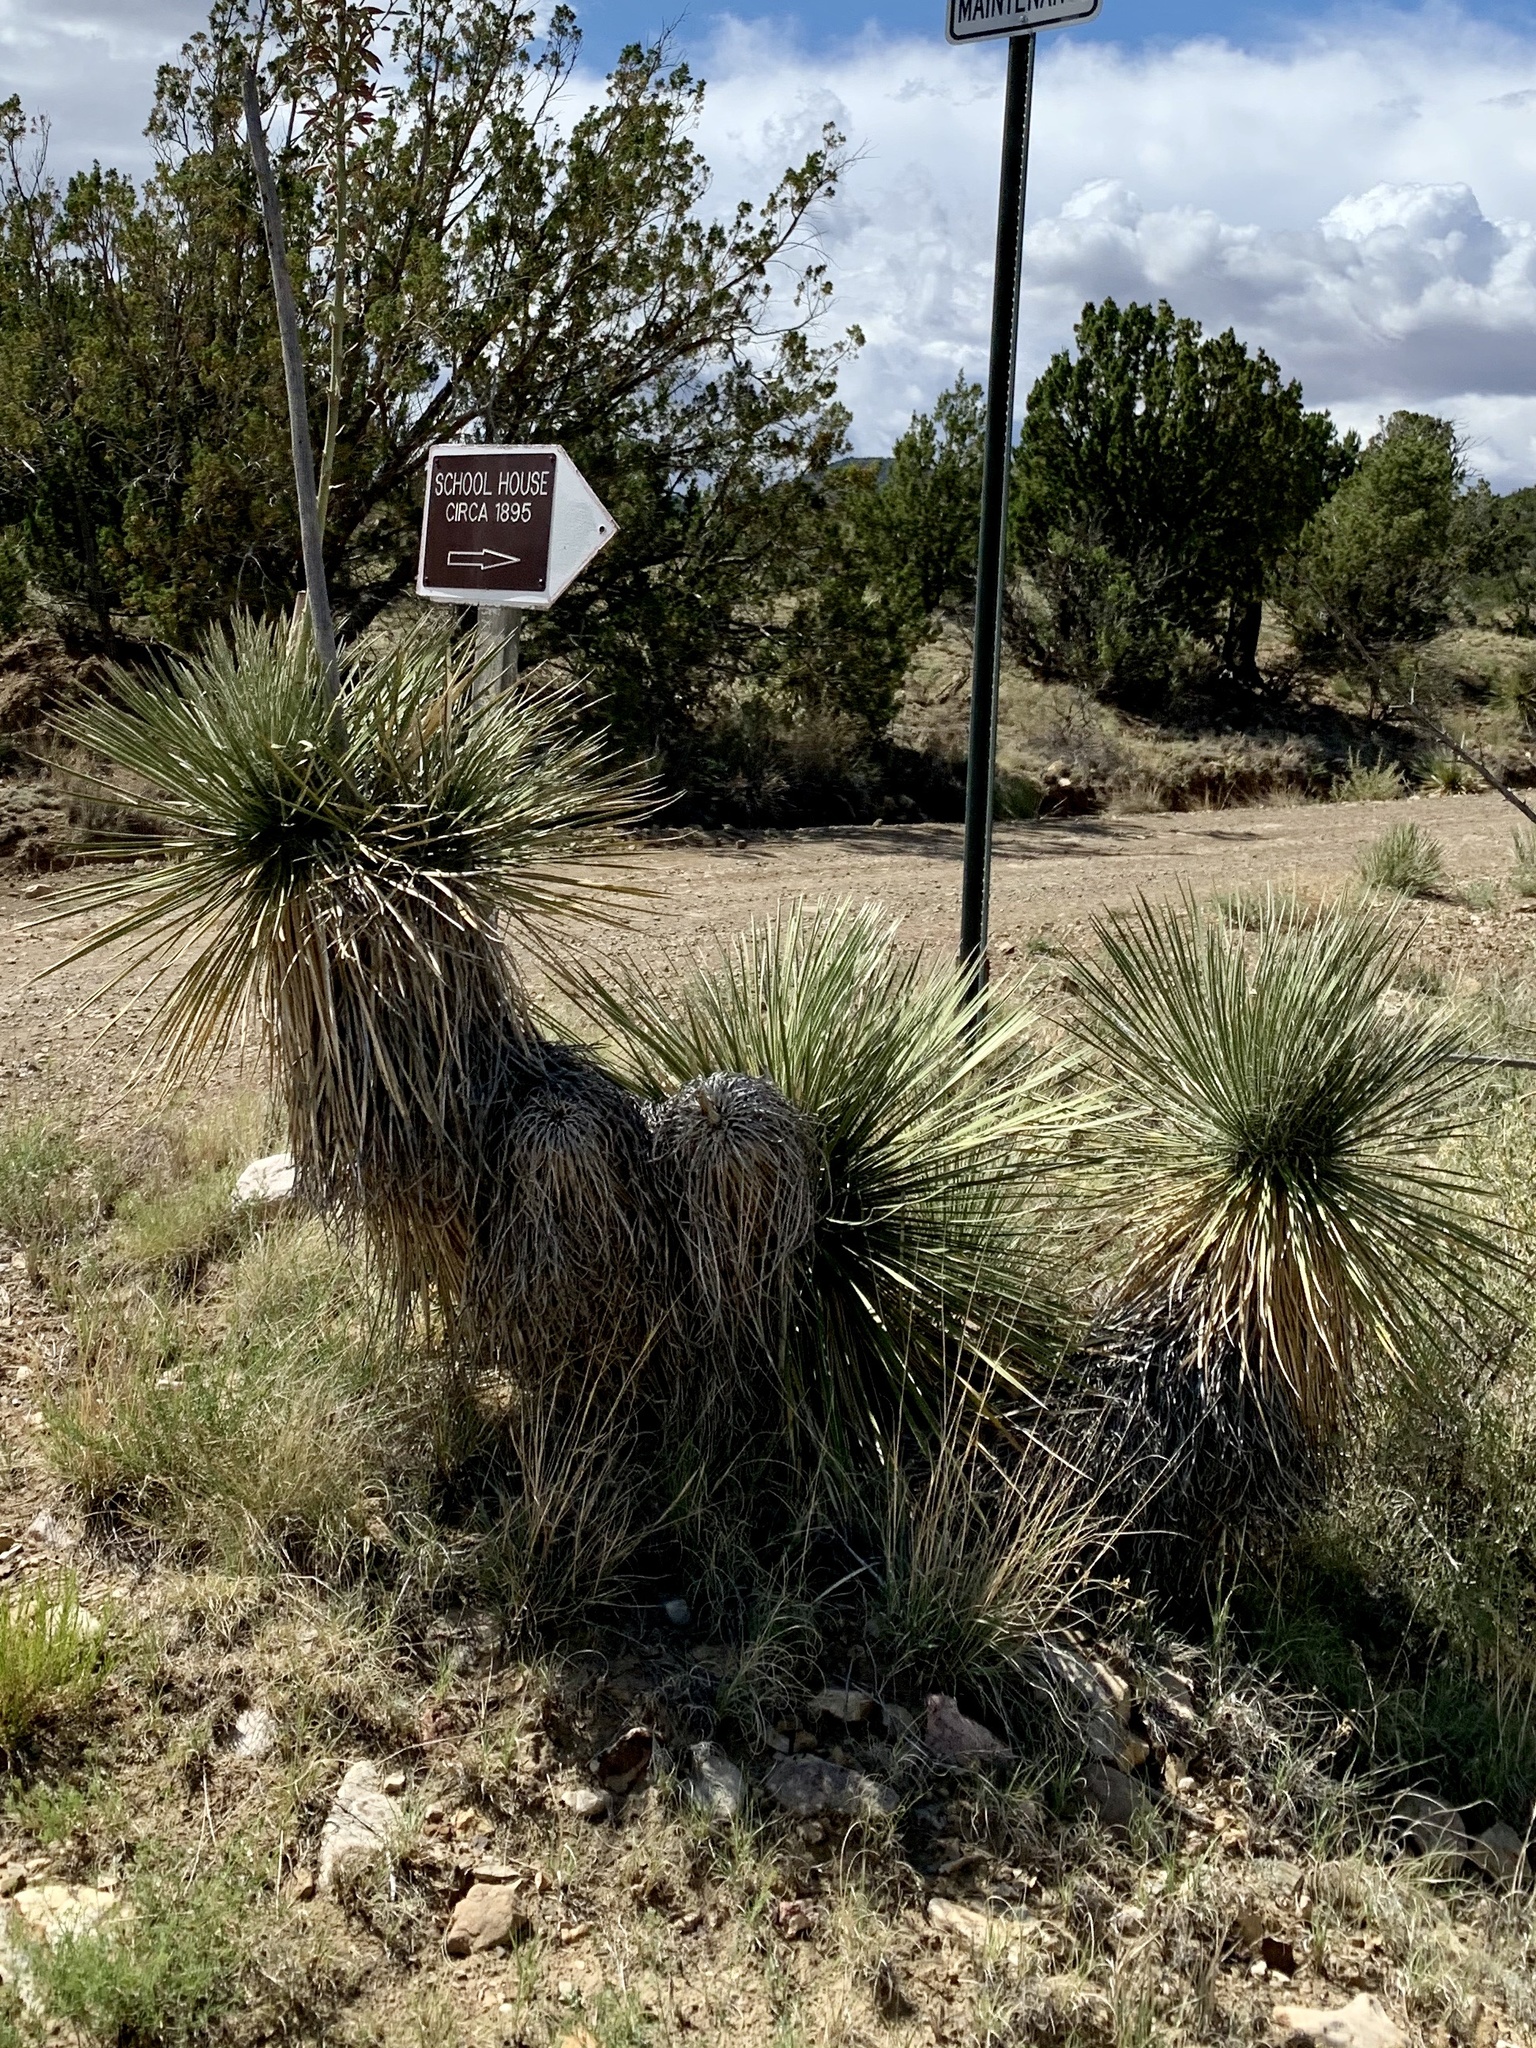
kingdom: Plantae
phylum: Tracheophyta
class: Liliopsida
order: Asparagales
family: Asparagaceae
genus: Yucca
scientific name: Yucca elata
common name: Palmella
